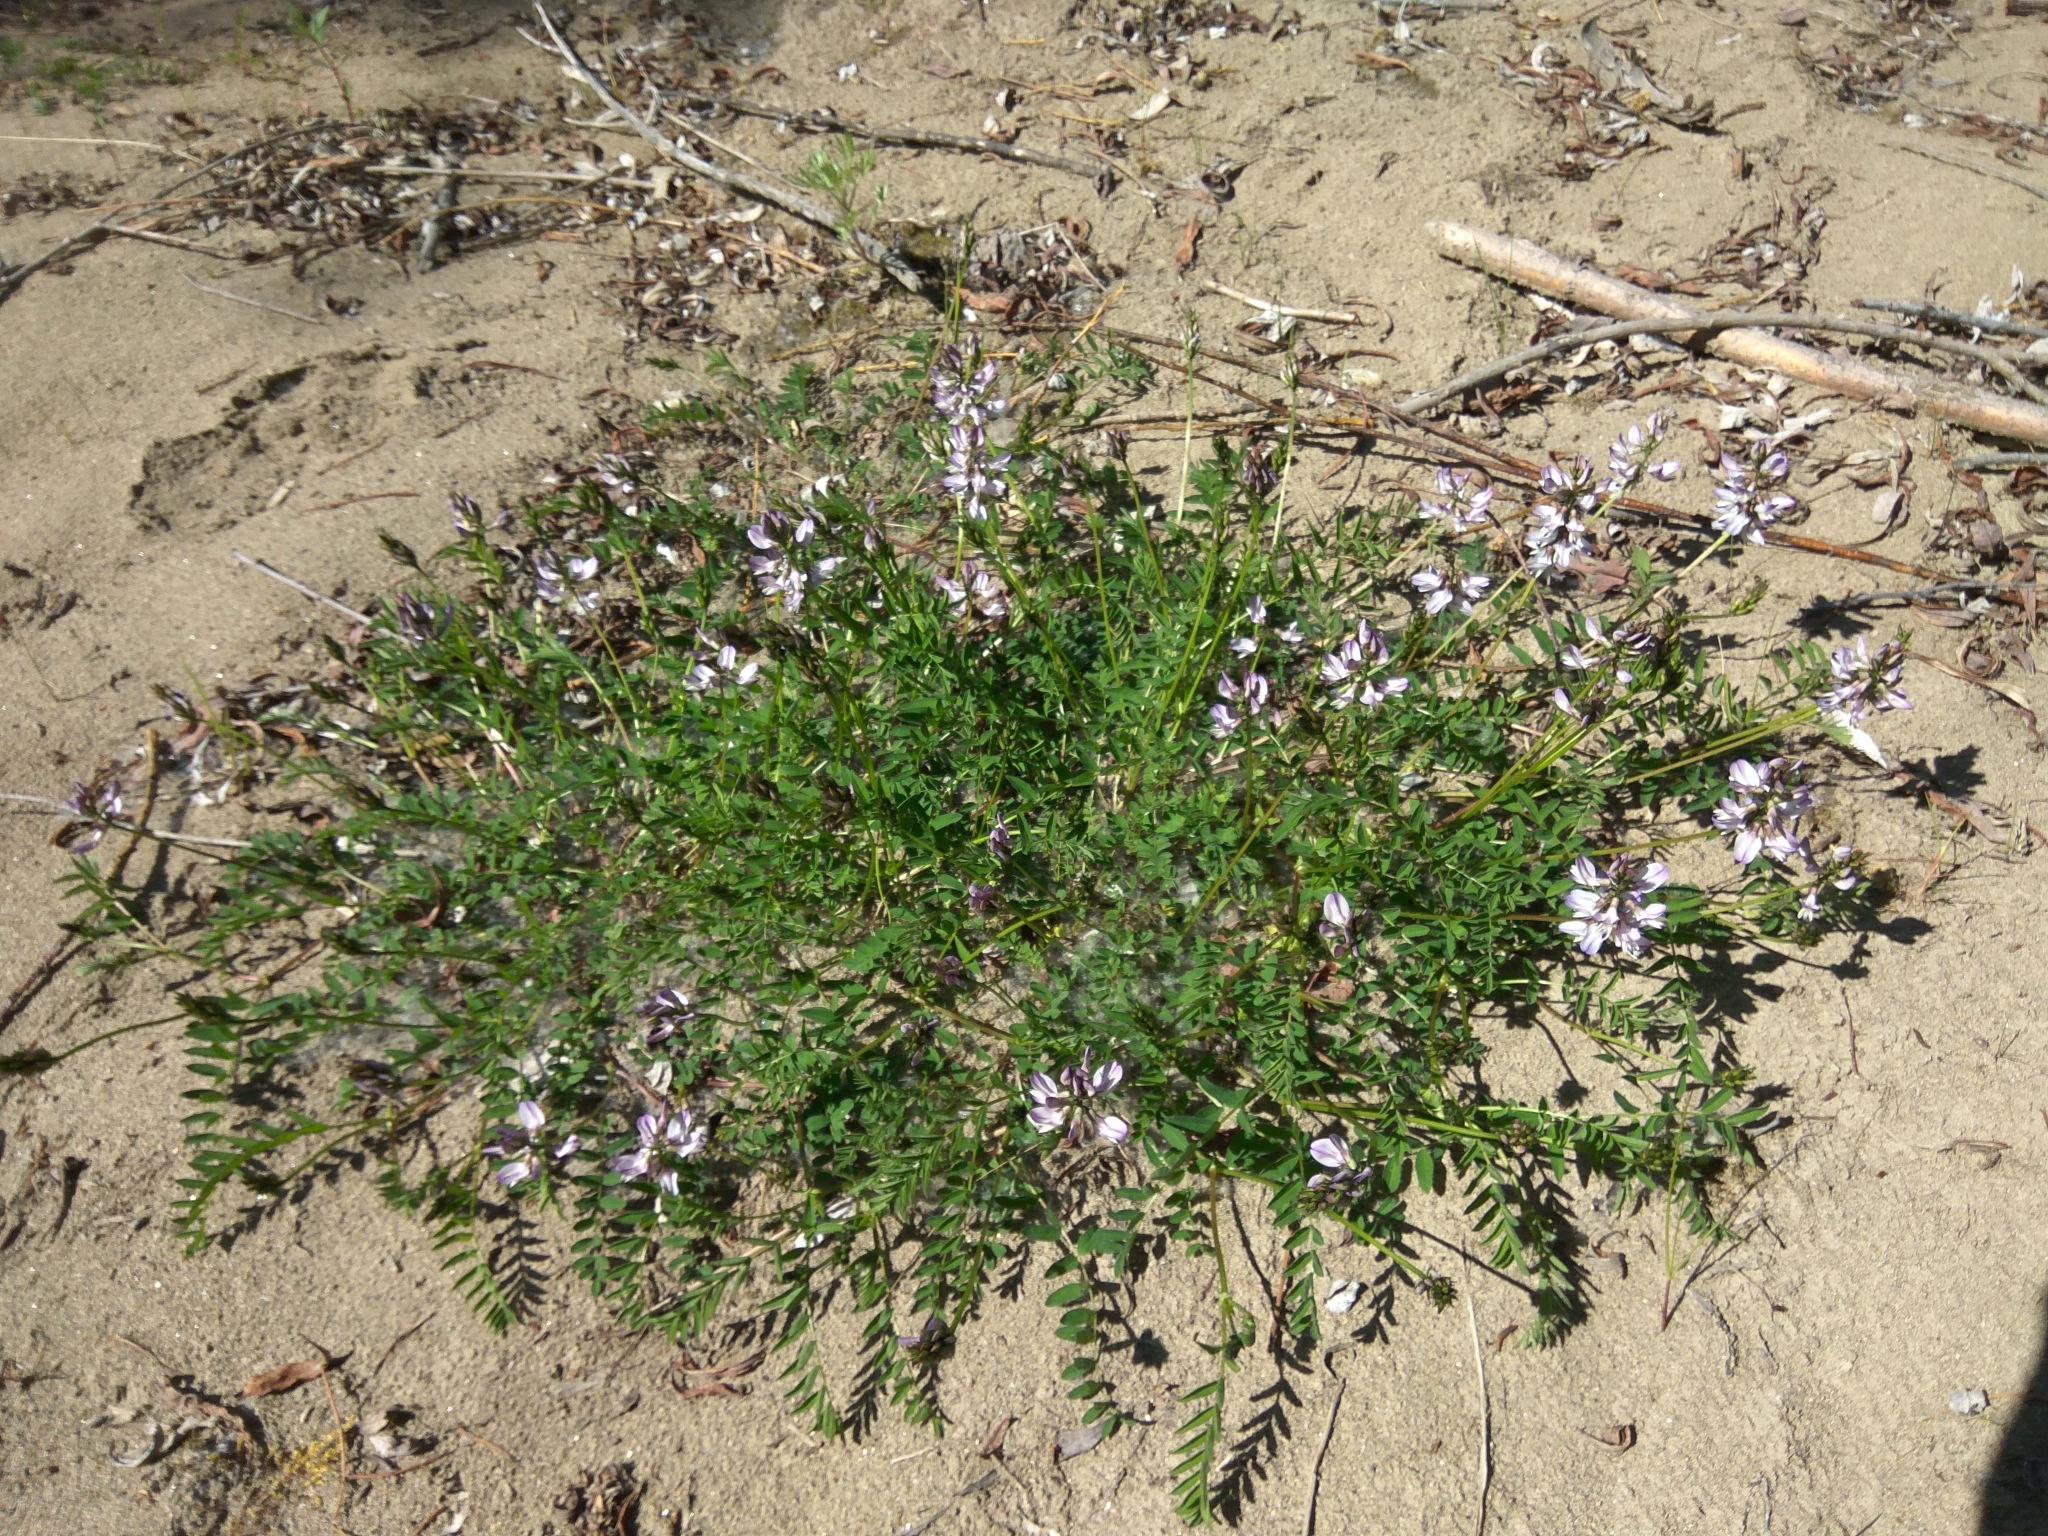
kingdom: Plantae
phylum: Tracheophyta
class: Magnoliopsida
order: Fabales
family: Fabaceae
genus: Astragalus
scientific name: Astragalus alpinus
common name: Alpine milk-vetch
